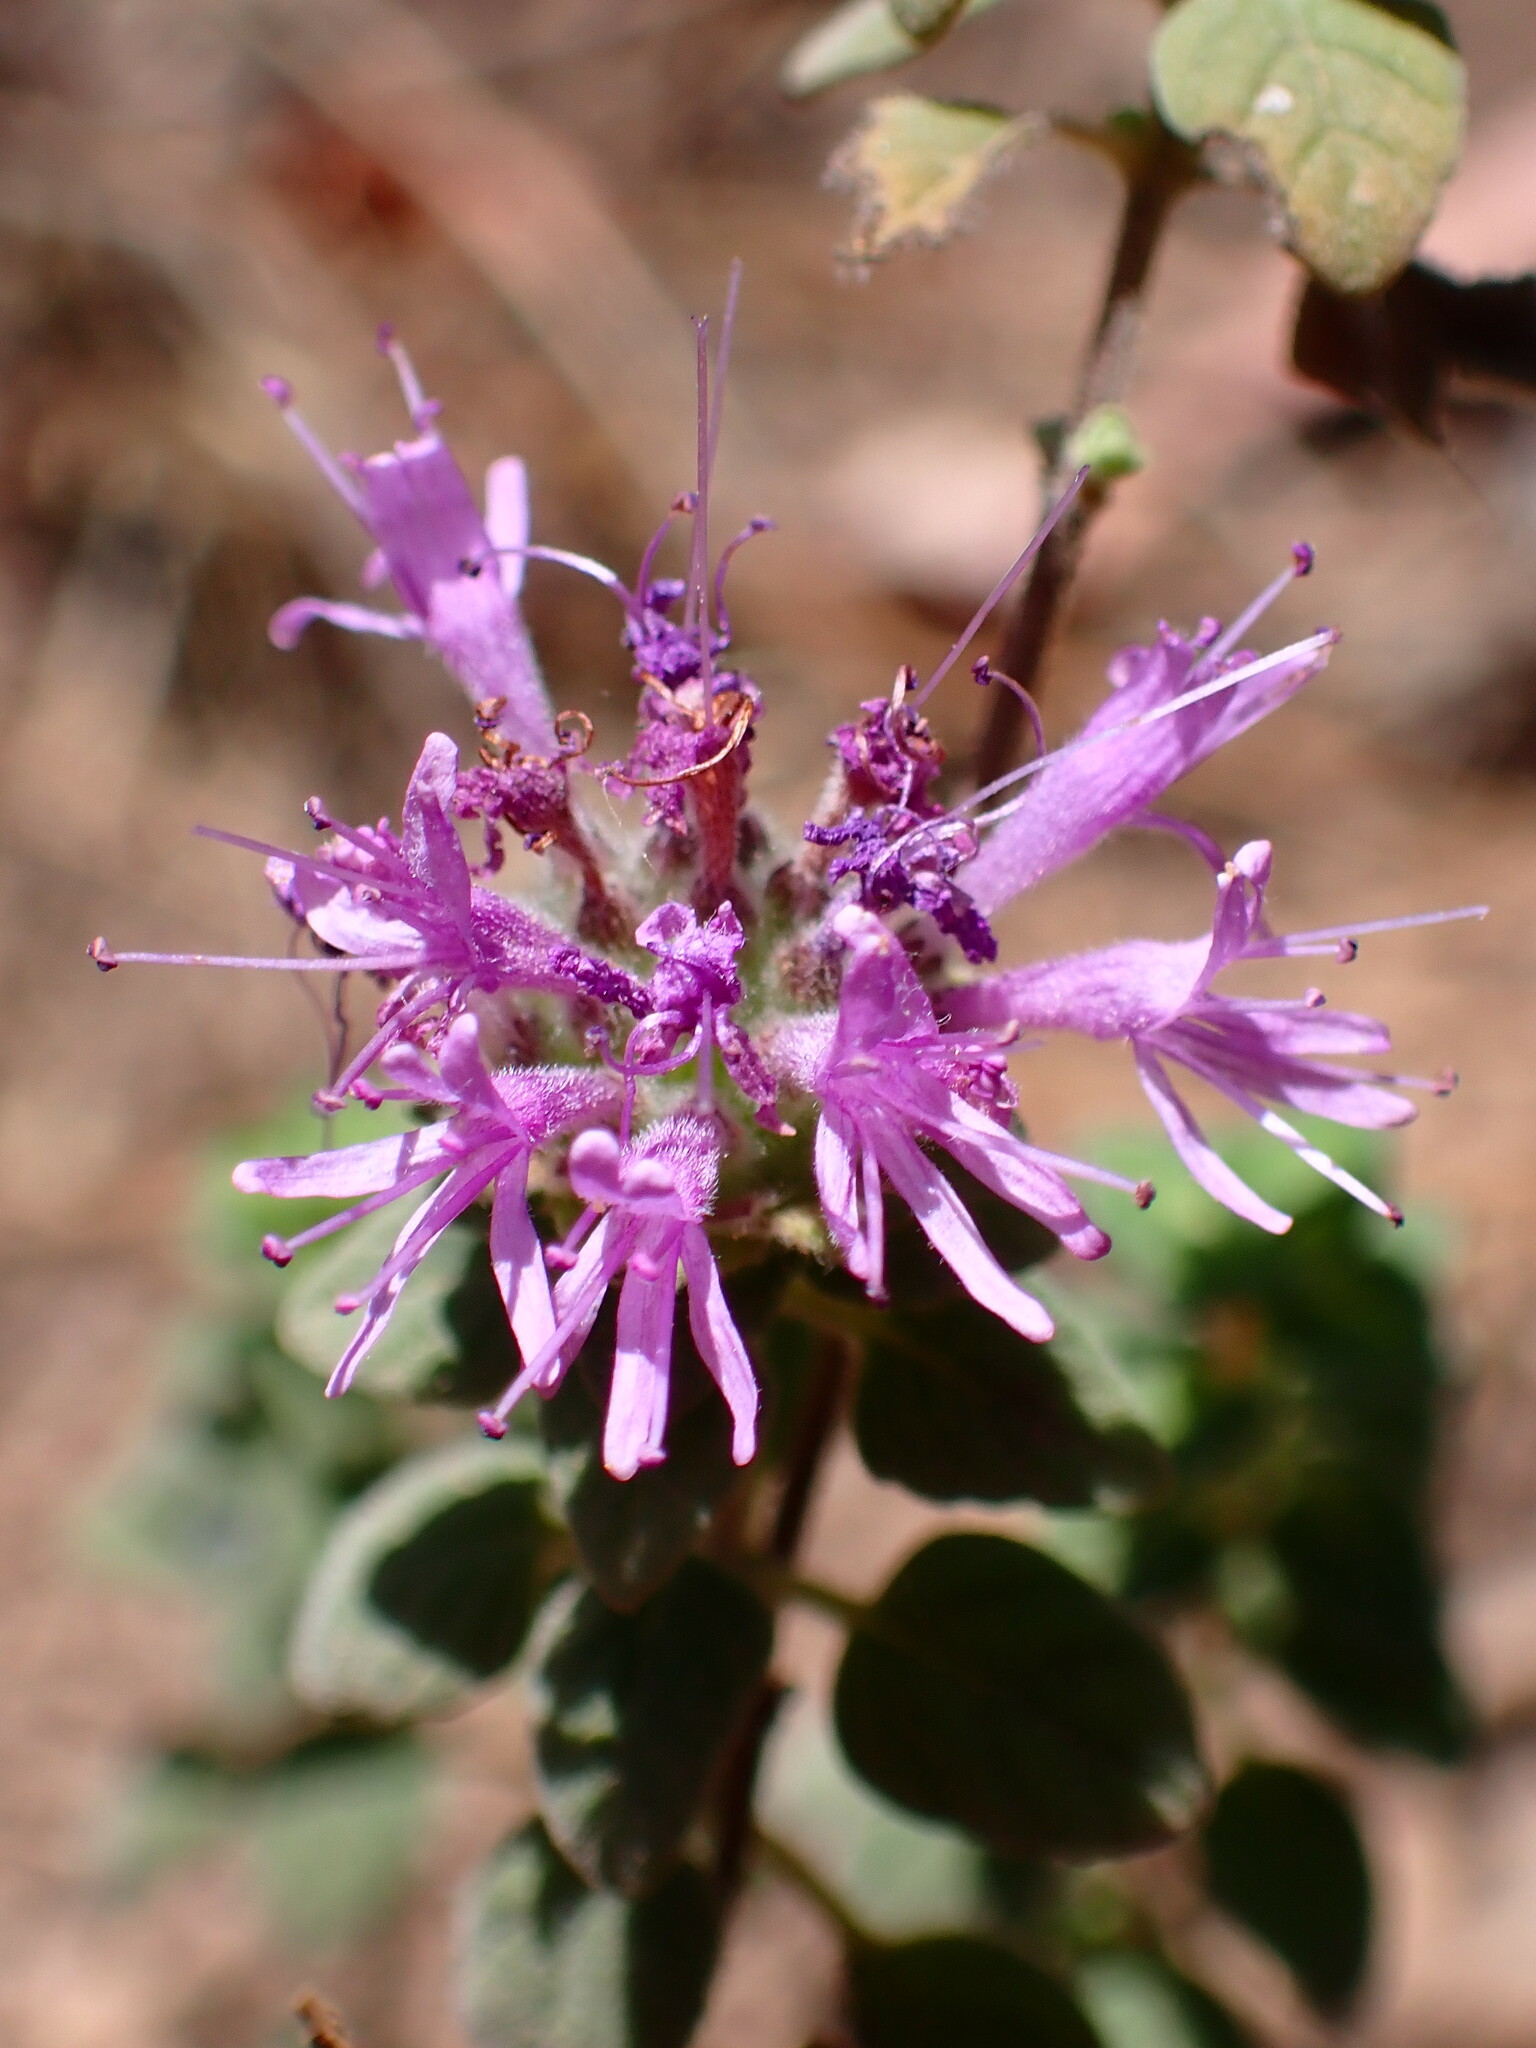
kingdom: Plantae
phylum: Tracheophyta
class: Magnoliopsida
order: Lamiales
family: Lamiaceae
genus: Monardella
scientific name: Monardella odoratissima
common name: Pacific monardella
